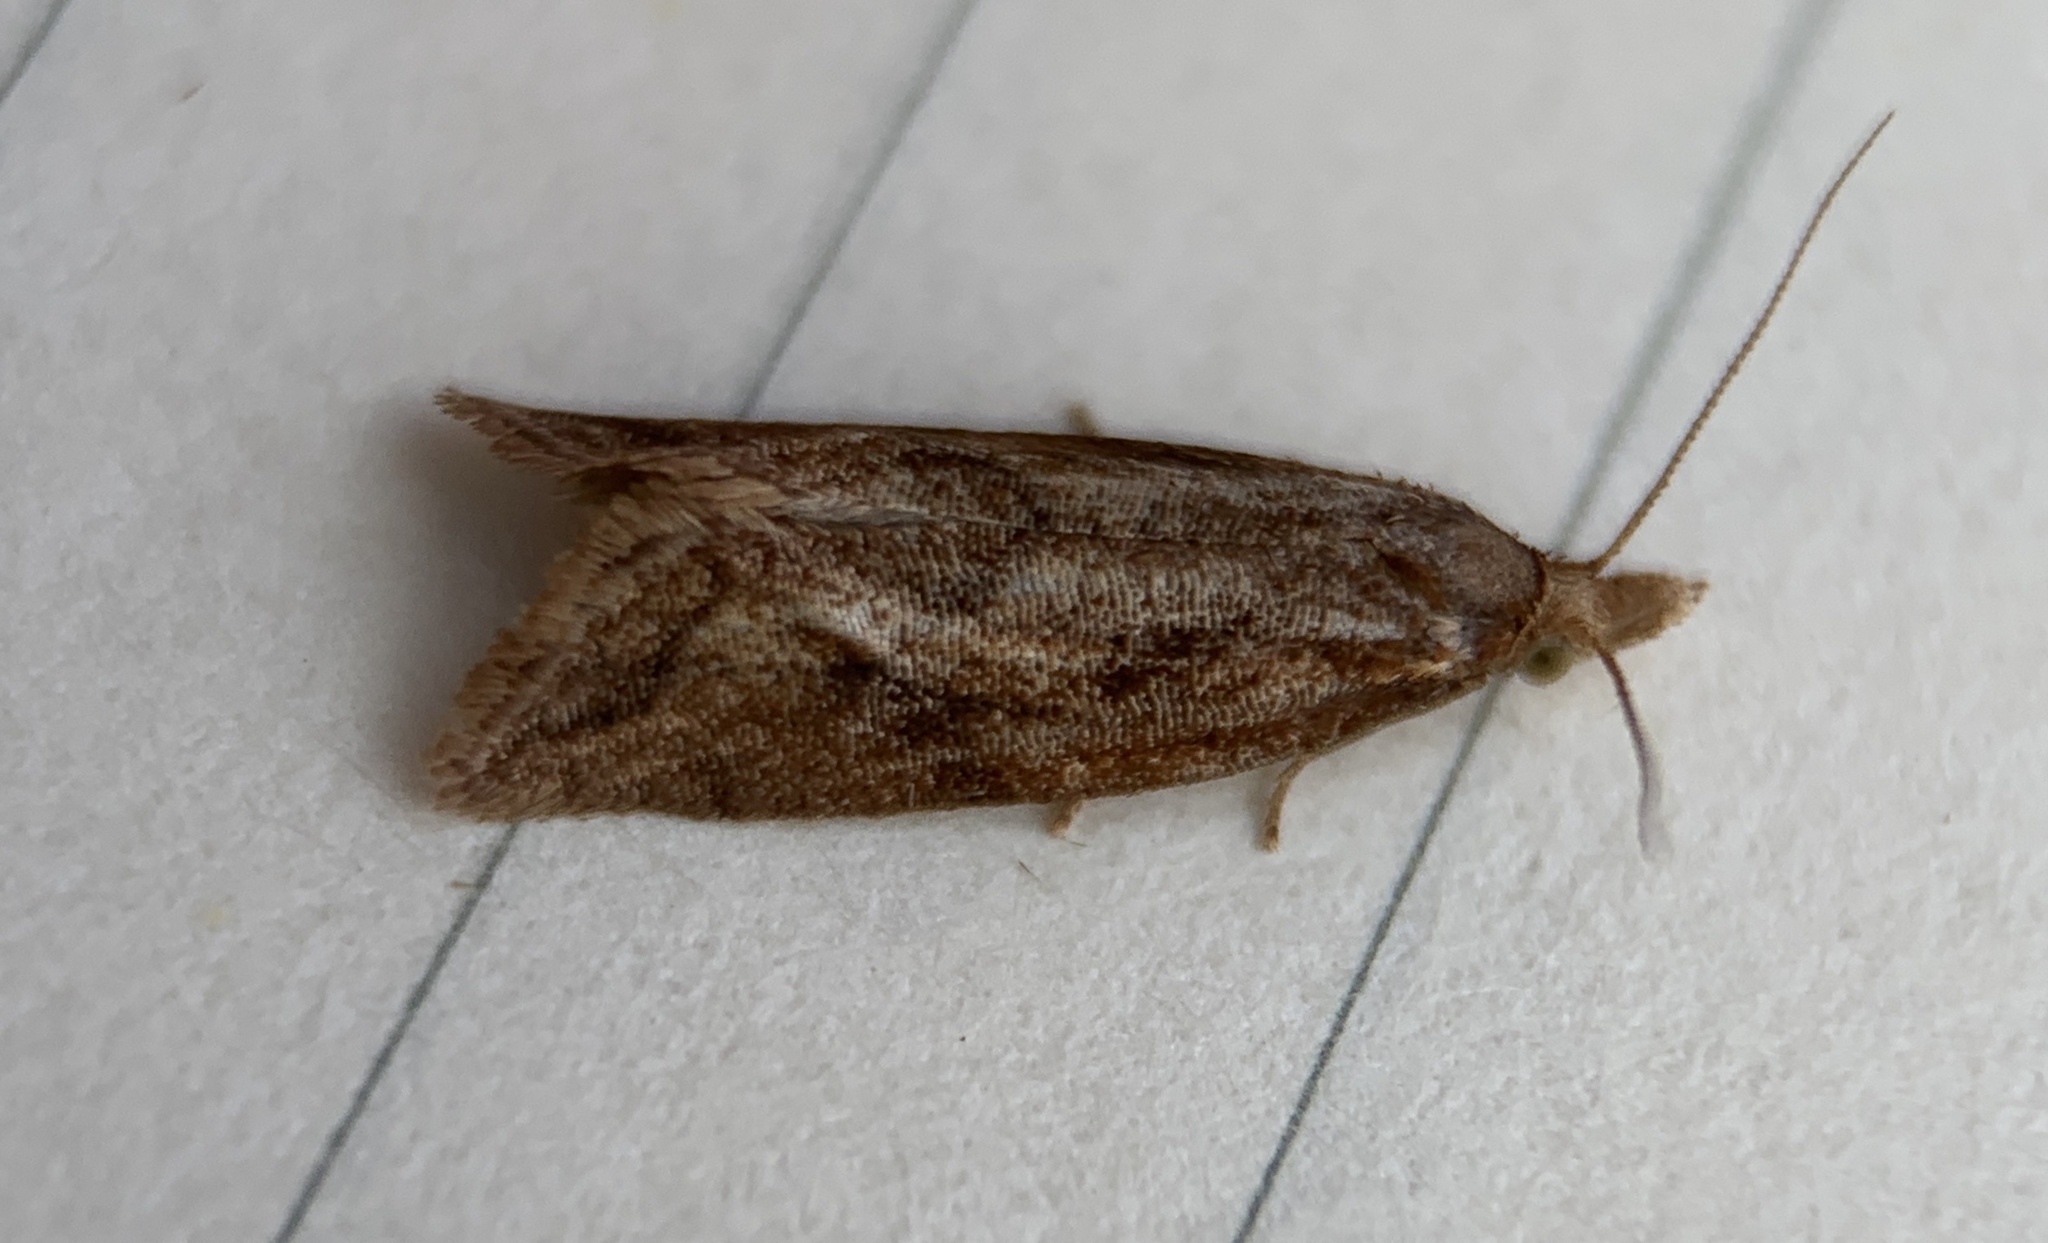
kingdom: Animalia
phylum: Arthropoda
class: Insecta
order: Lepidoptera
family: Tortricidae
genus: Aethes
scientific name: Aethes biscana
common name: Reddish aethes
